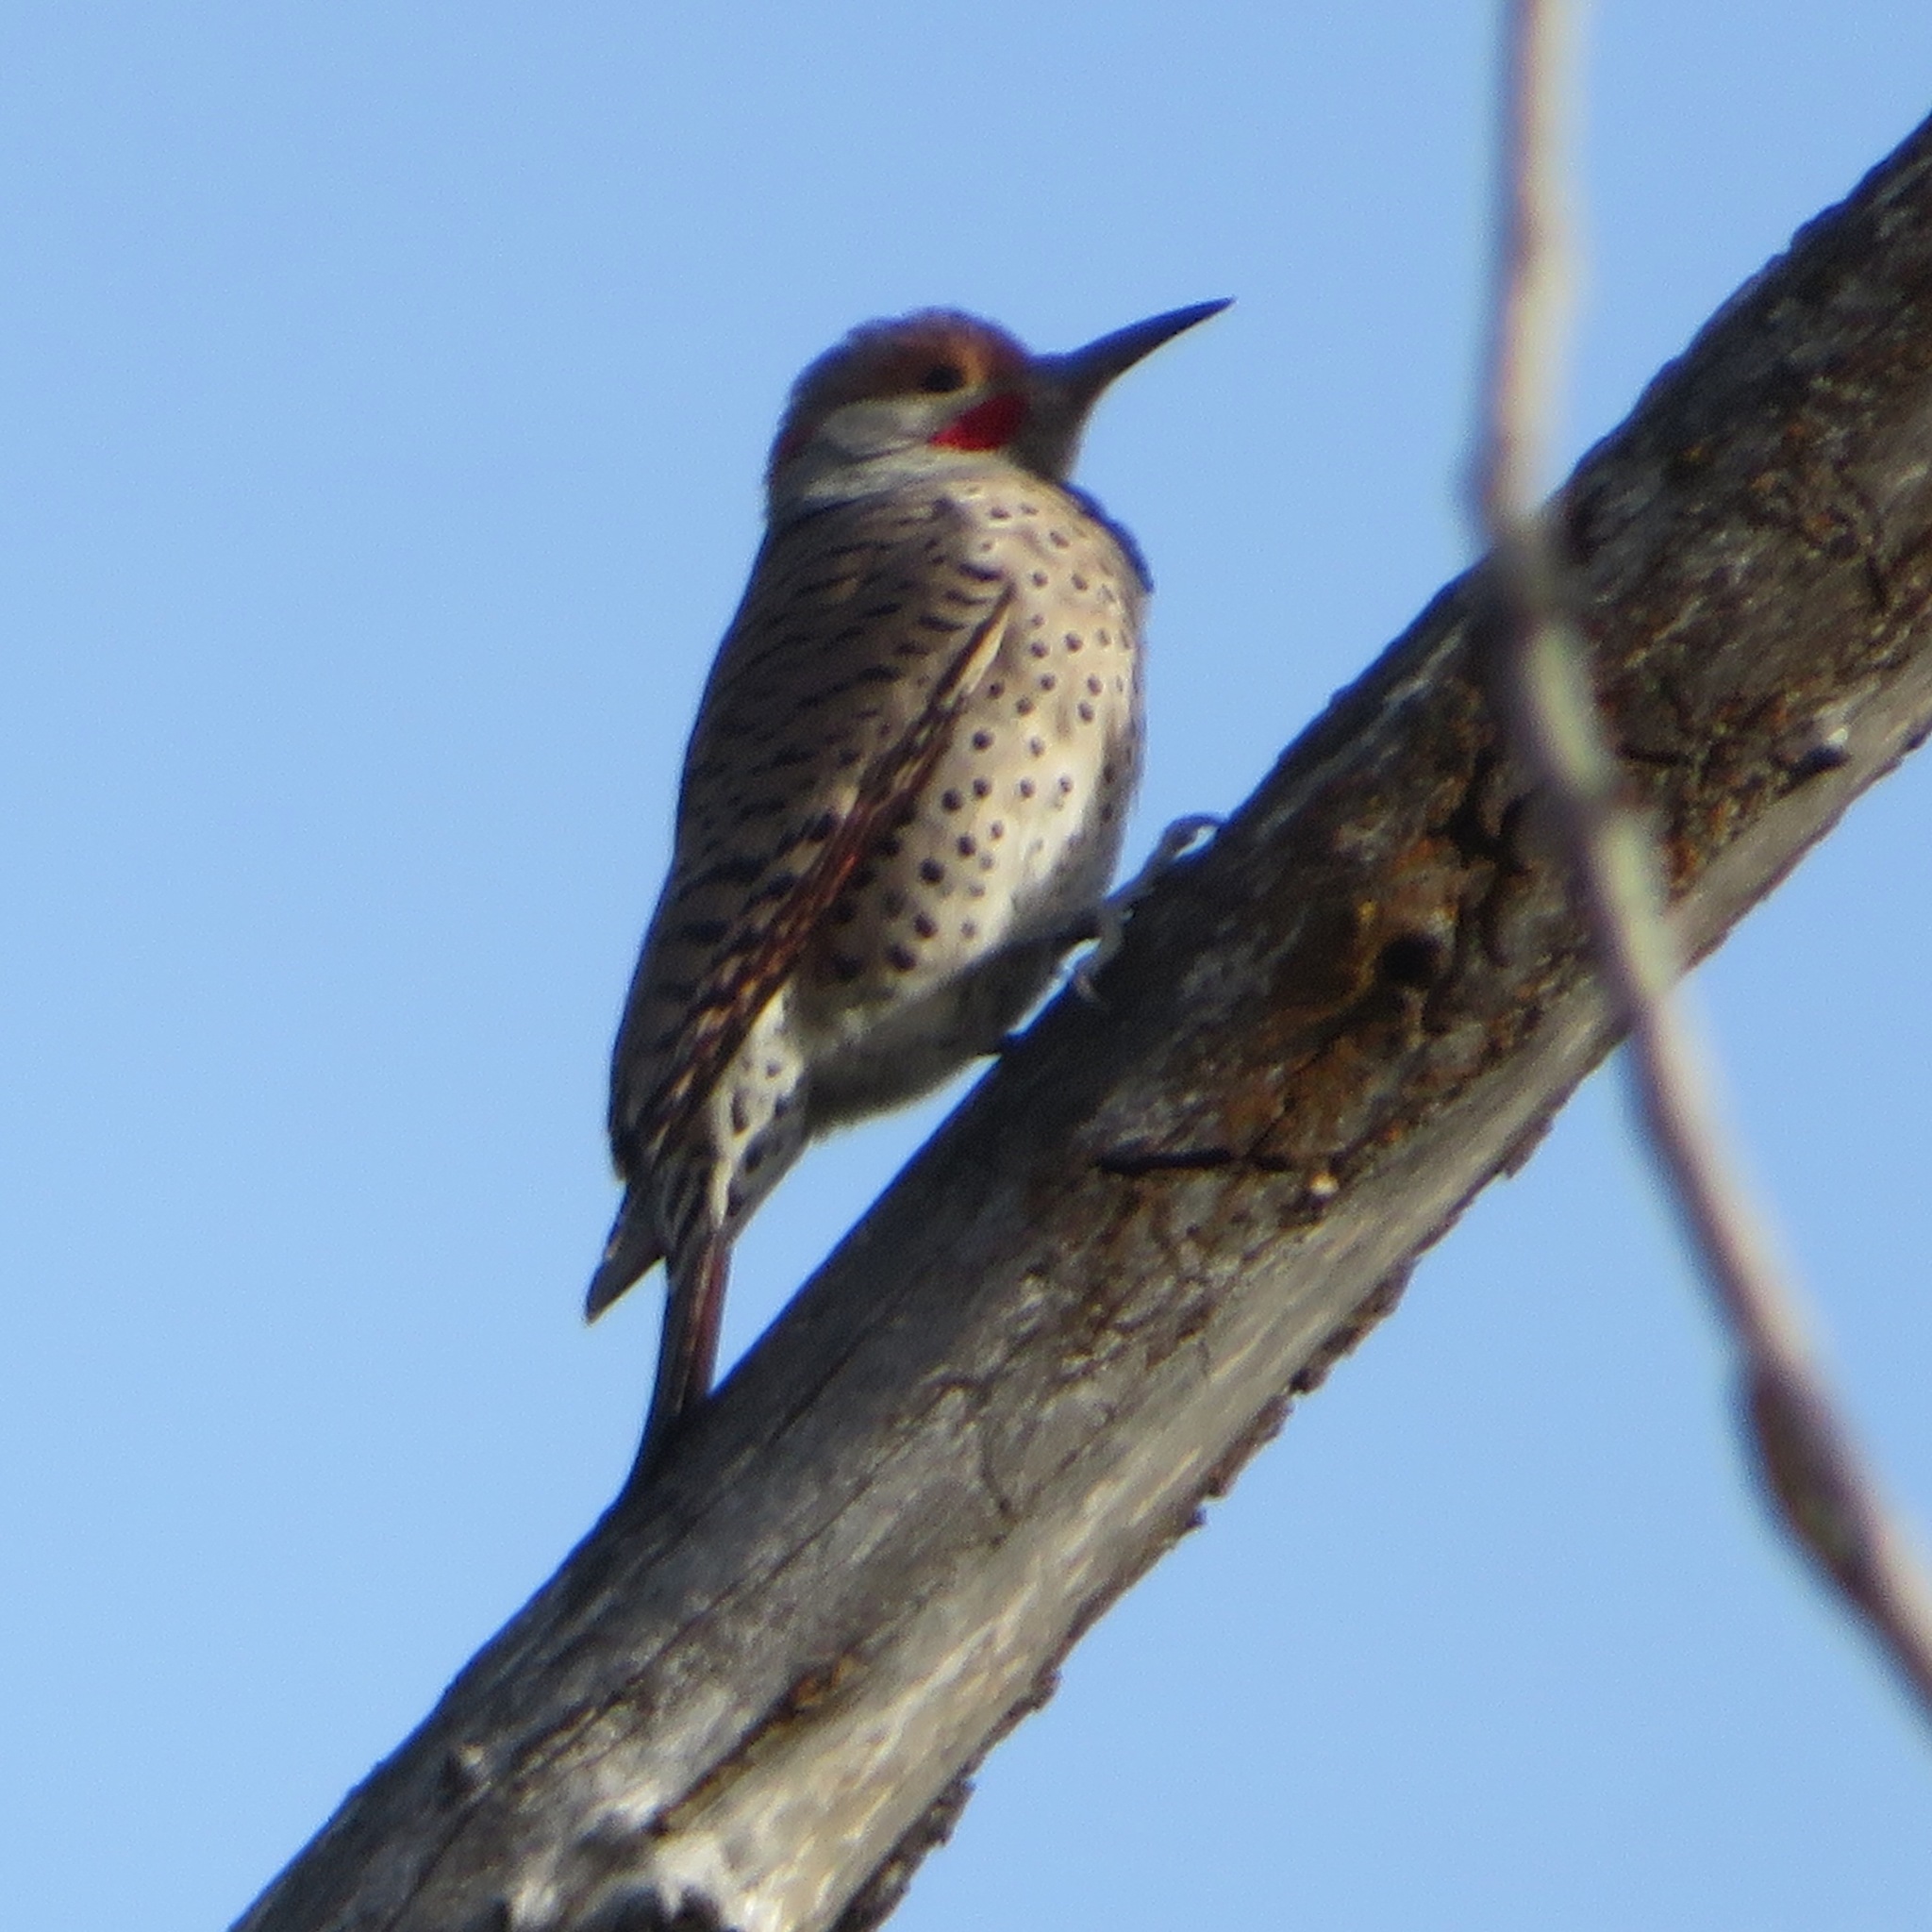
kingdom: Animalia
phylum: Chordata
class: Aves
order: Piciformes
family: Picidae
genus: Colaptes
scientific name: Colaptes auratus
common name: Northern flicker
